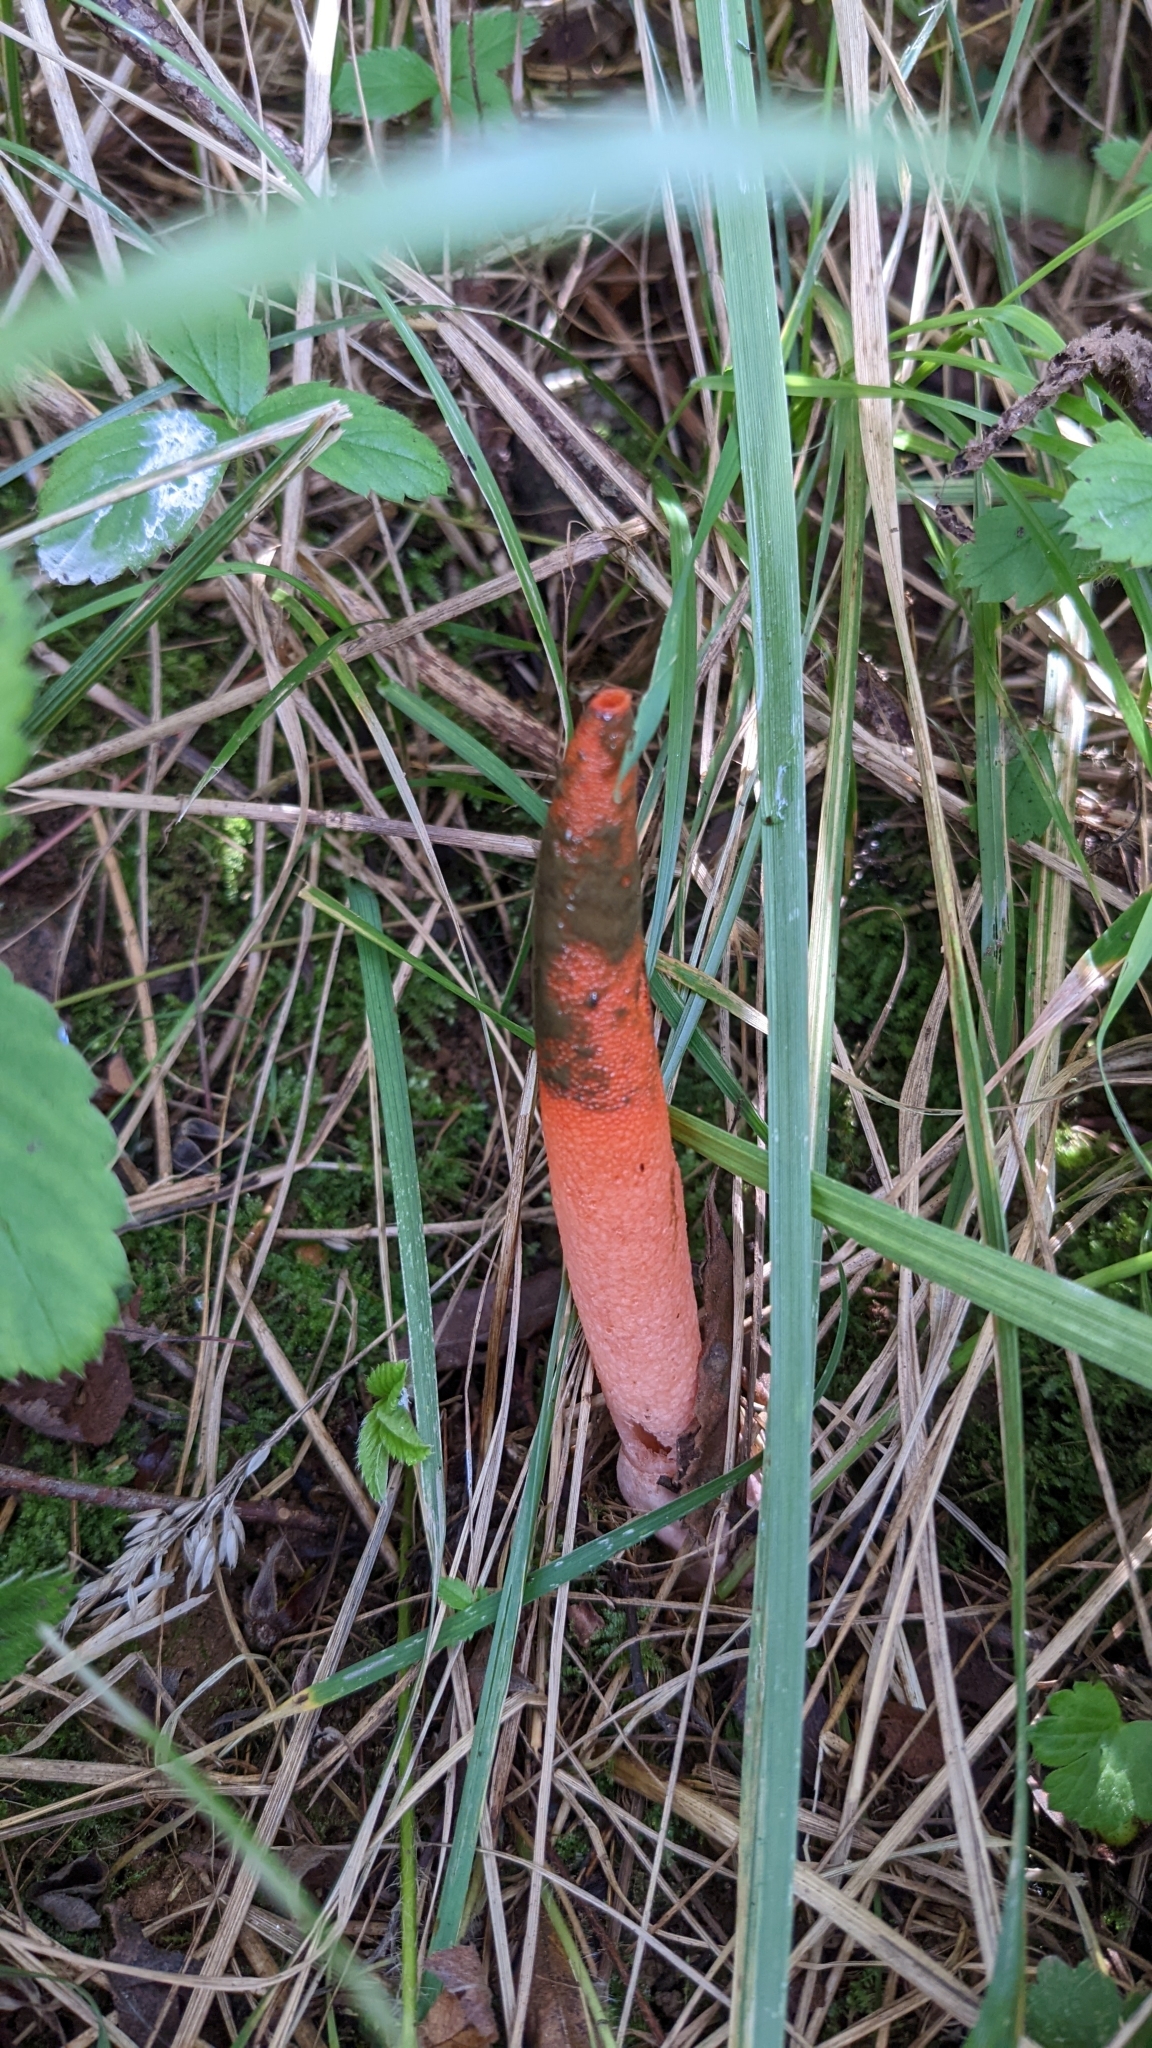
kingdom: Fungi
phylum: Basidiomycota
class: Agaricomycetes
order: Phallales
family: Phallaceae
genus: Mutinus
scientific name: Mutinus elegans
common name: Devil's dipstick
